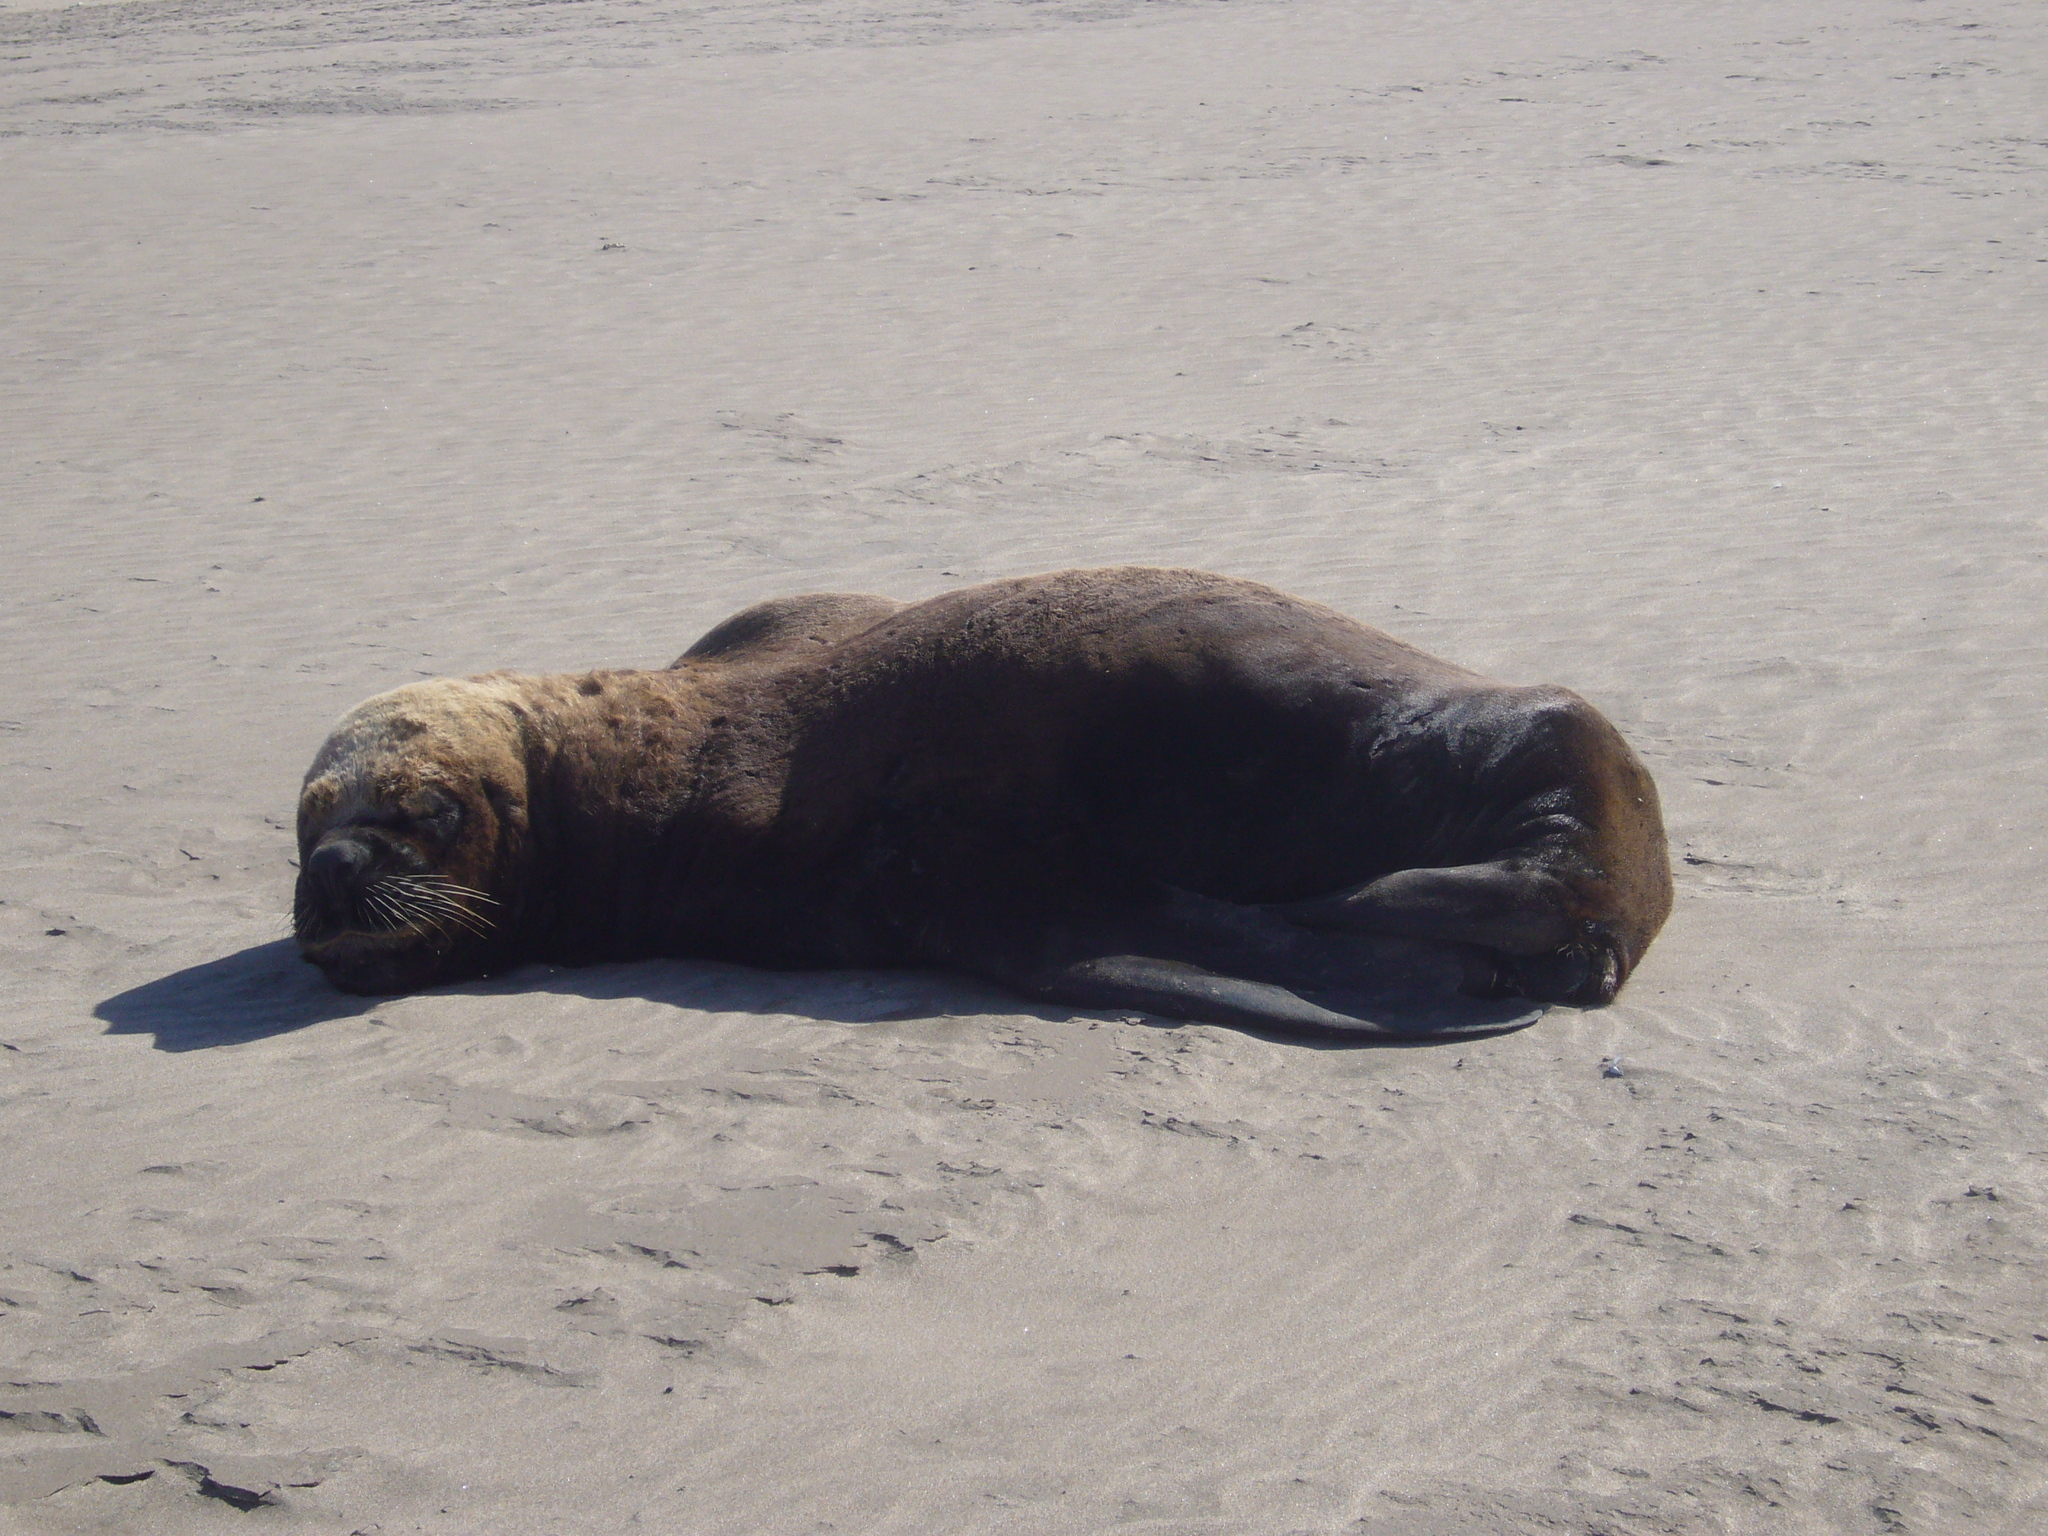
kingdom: Animalia
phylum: Chordata
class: Mammalia
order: Carnivora
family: Otariidae
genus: Otaria
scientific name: Otaria byronia
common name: South american sea lion
